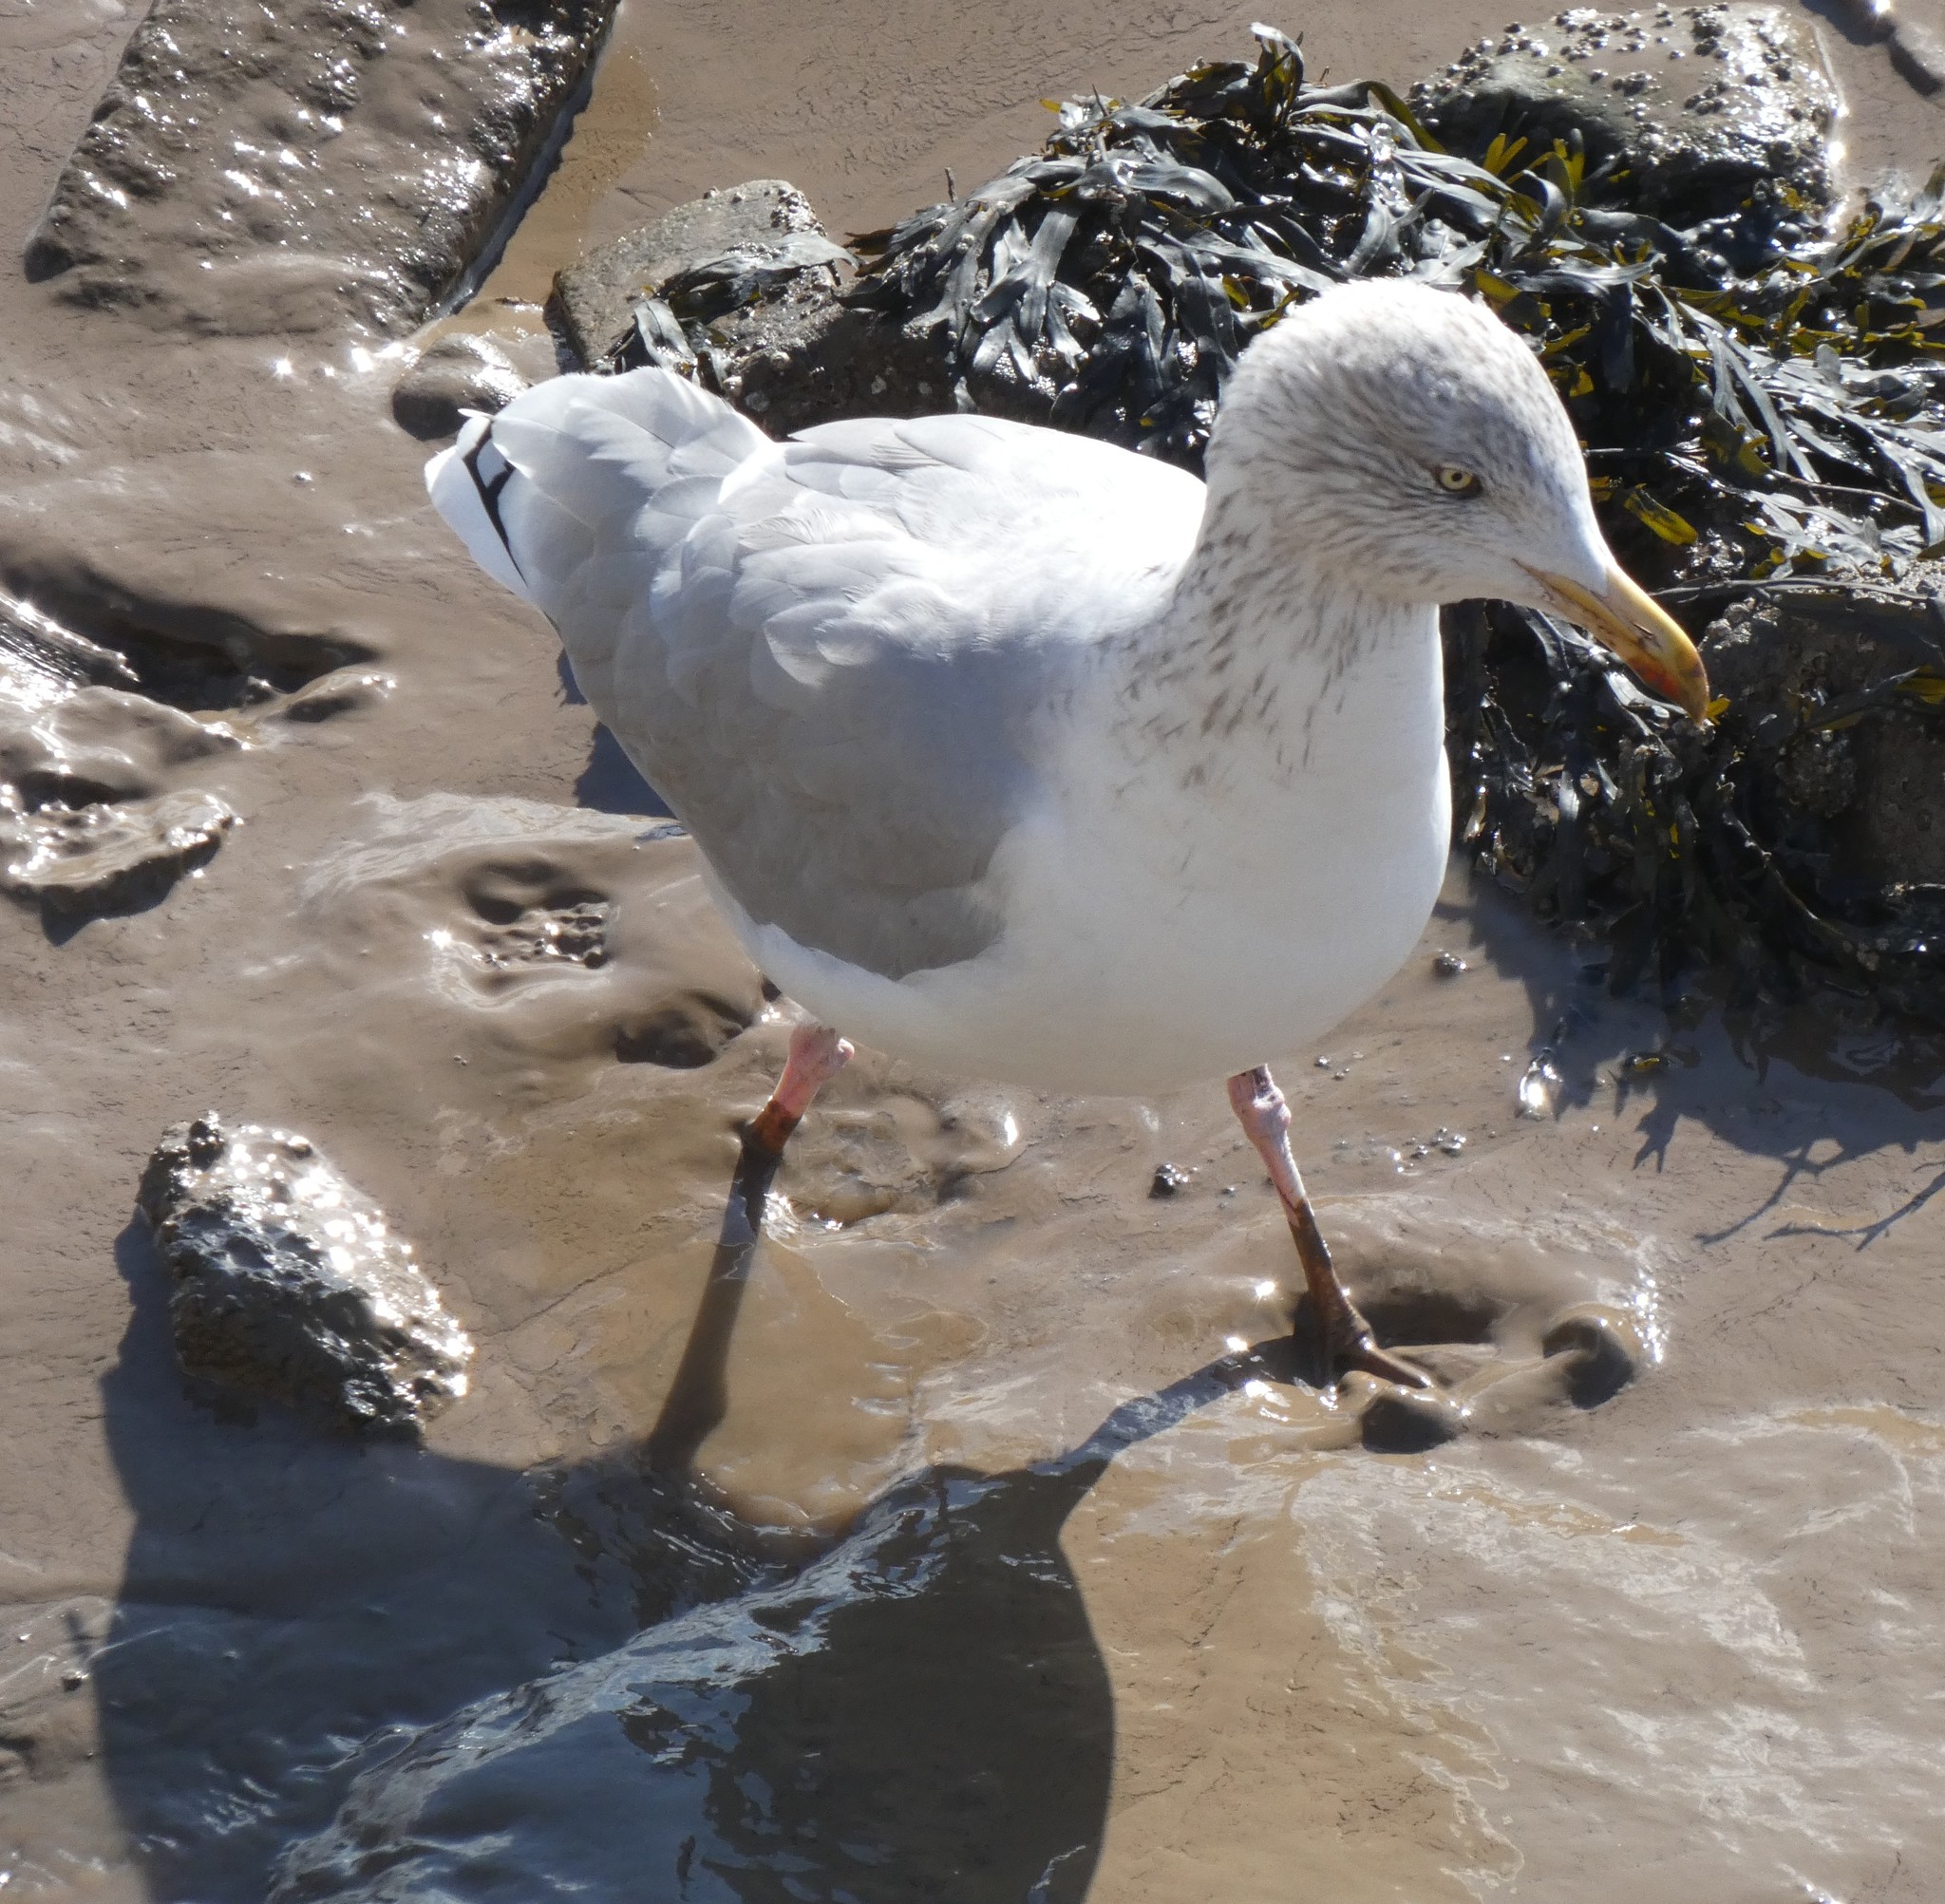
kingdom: Animalia
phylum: Chordata
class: Aves
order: Charadriiformes
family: Laridae
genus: Larus
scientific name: Larus argentatus
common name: Herring gull
